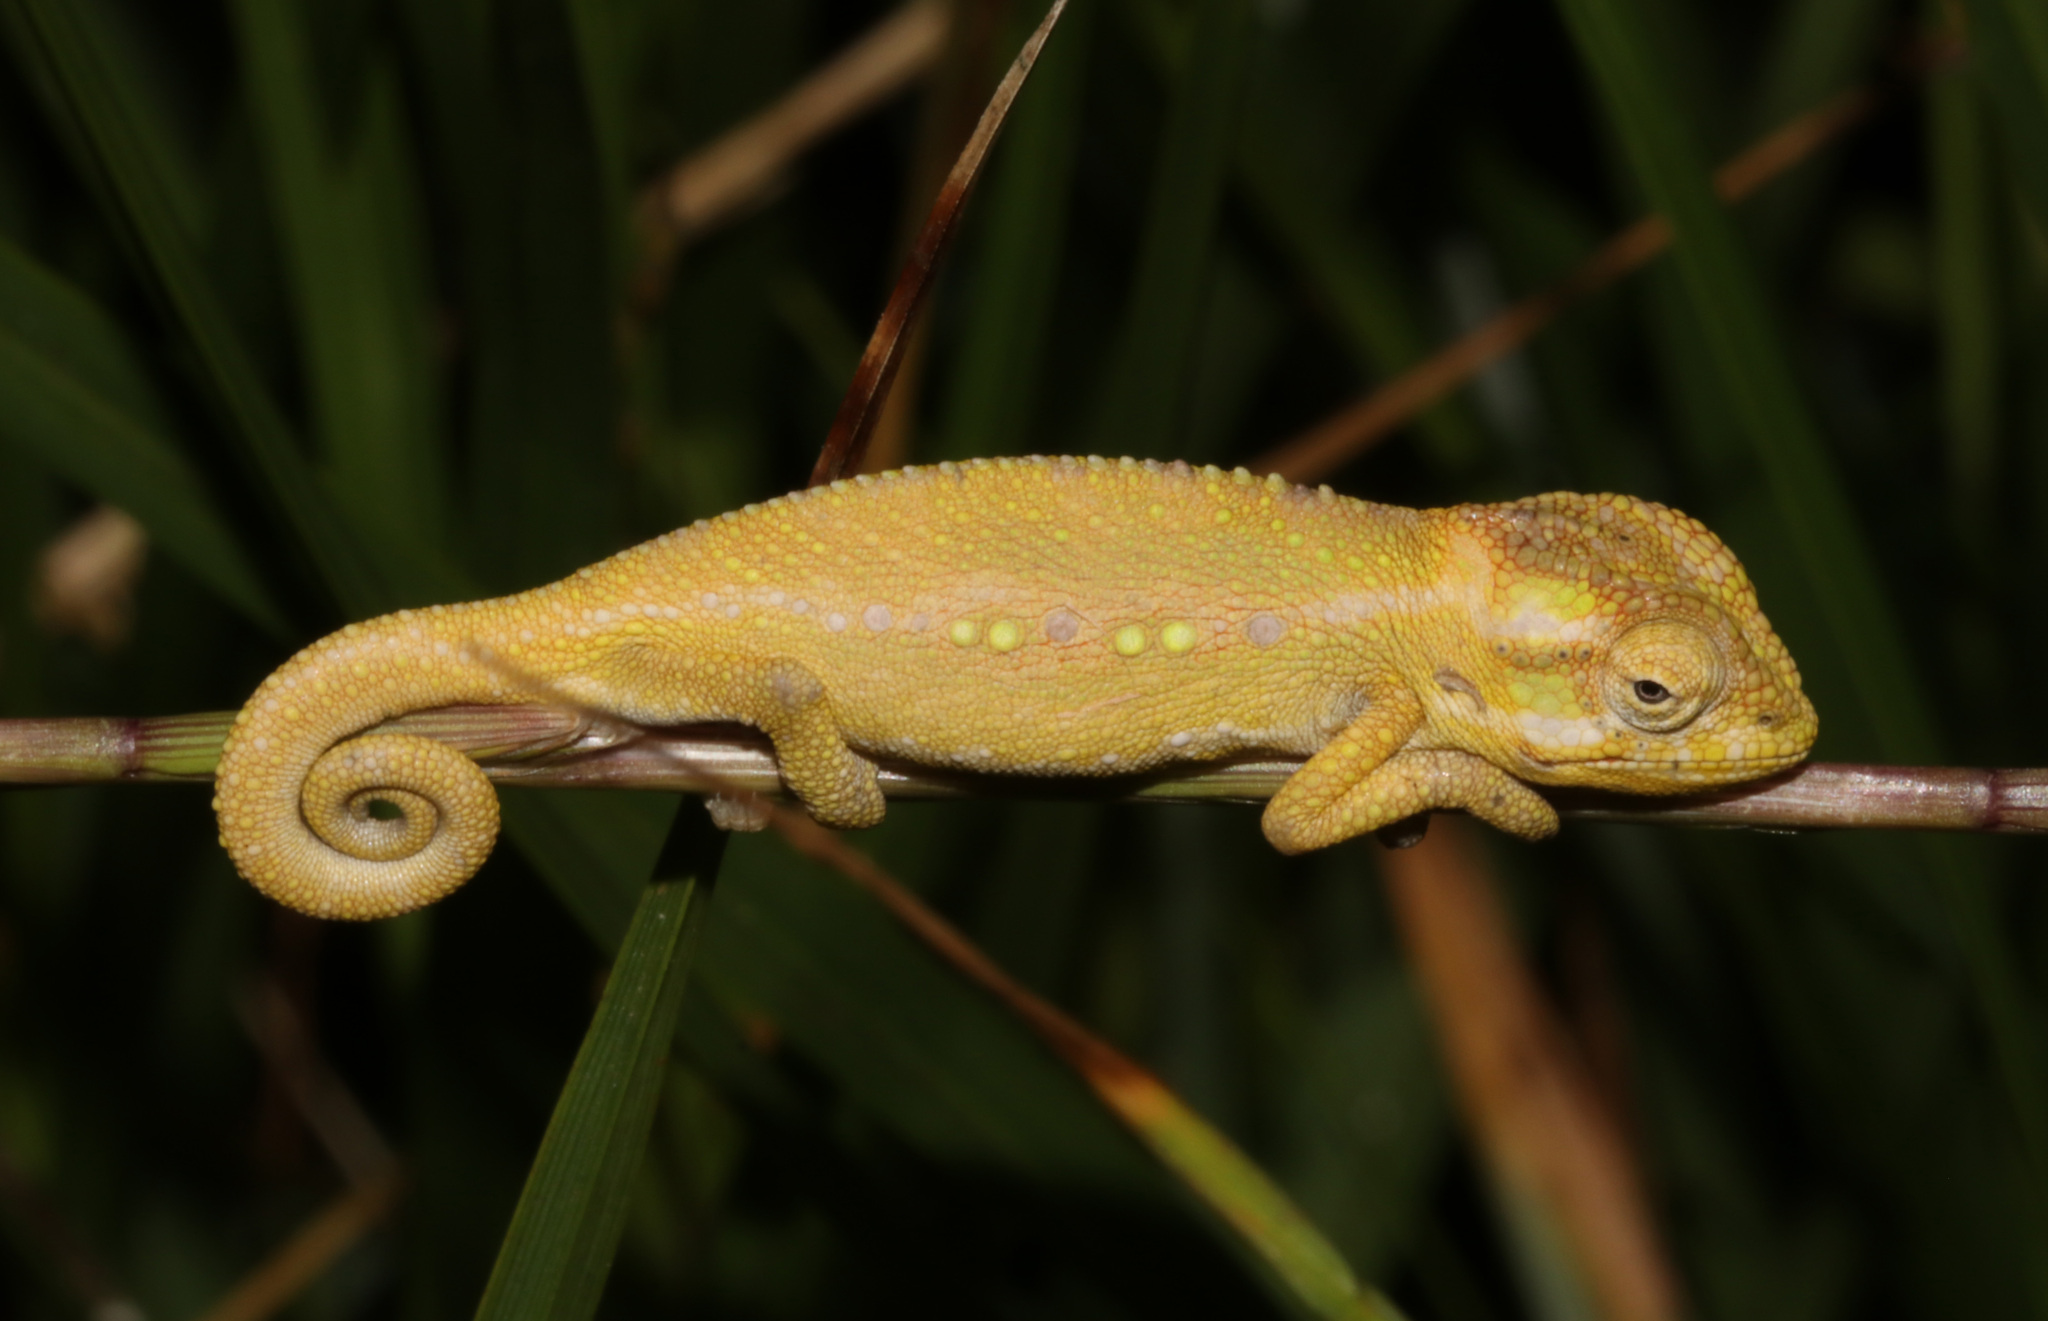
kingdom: Animalia
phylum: Chordata
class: Squamata
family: Chamaeleonidae
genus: Bradypodion
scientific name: Bradypodion pumilum
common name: Cape dwarf chameleon
